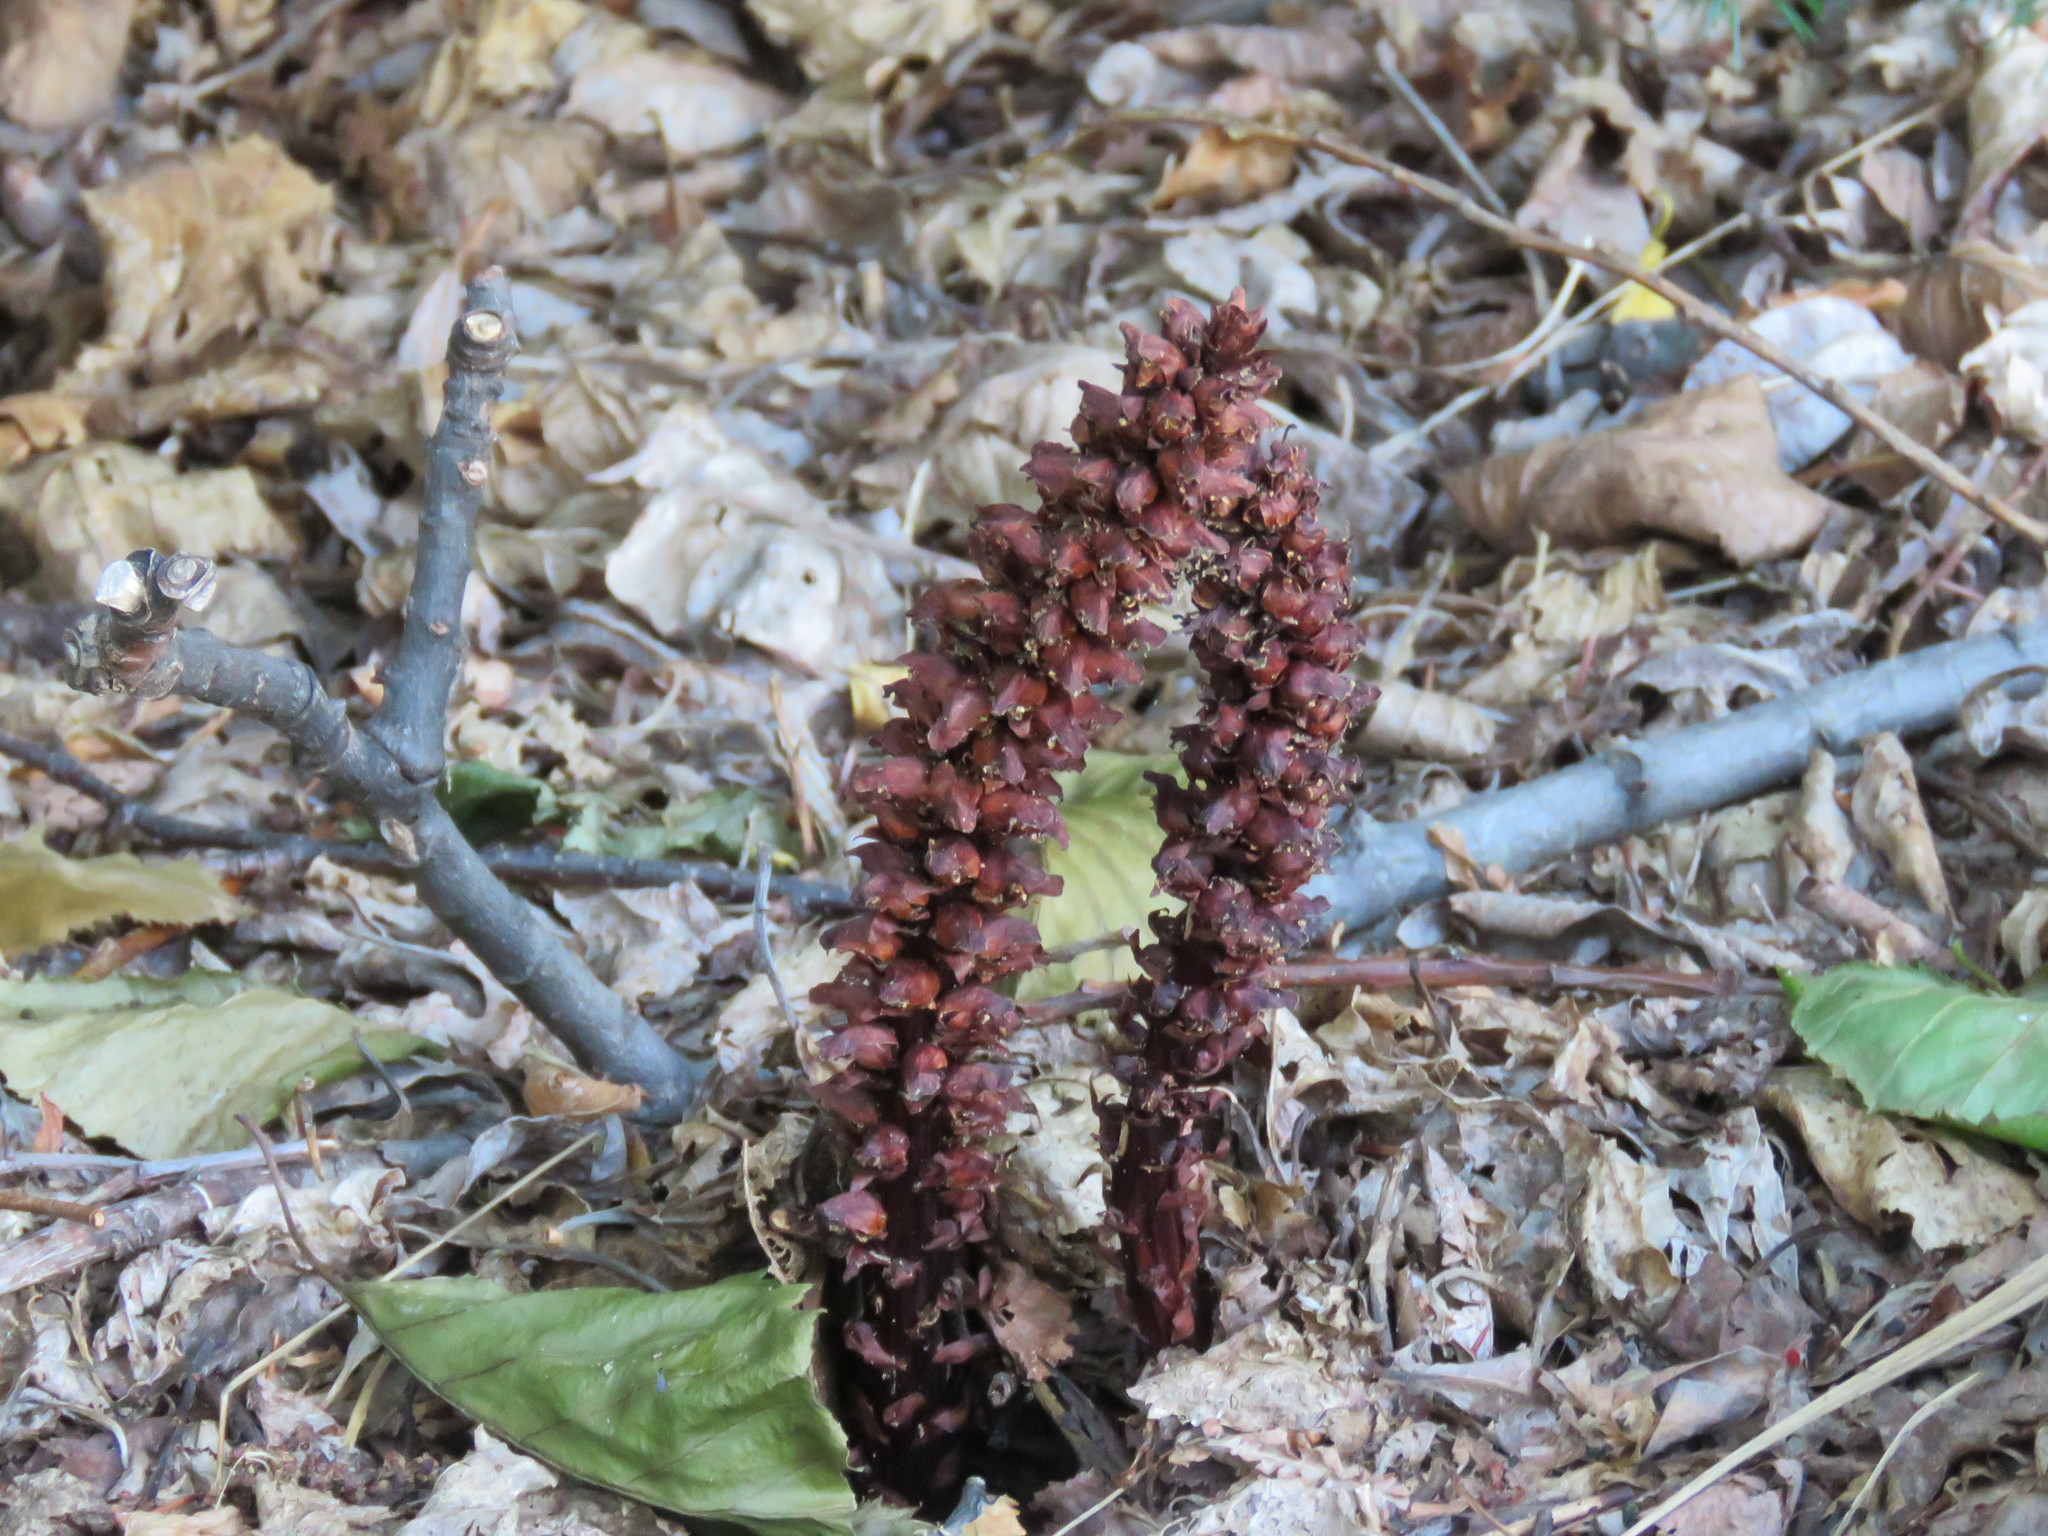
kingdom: Plantae
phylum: Tracheophyta
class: Magnoliopsida
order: Lamiales
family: Orobanchaceae
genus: Boschniakia
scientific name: Boschniakia rossica
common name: Poque
